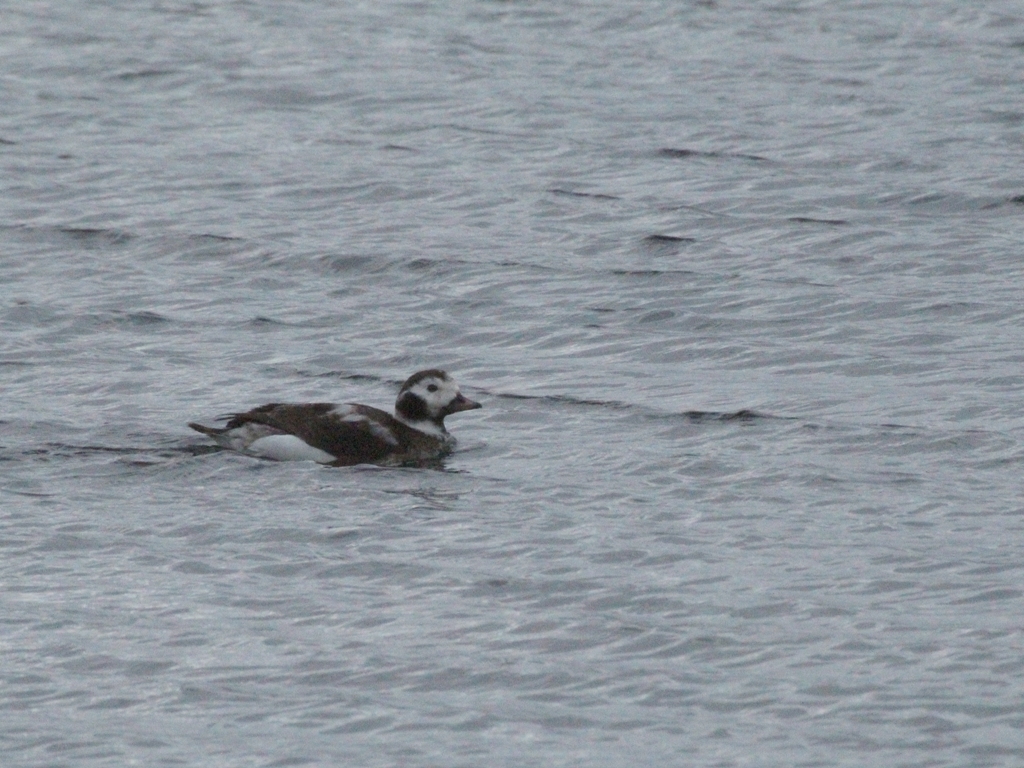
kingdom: Animalia
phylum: Chordata
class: Aves
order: Anseriformes
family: Anatidae
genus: Clangula
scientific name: Clangula hyemalis
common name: Long-tailed duck
